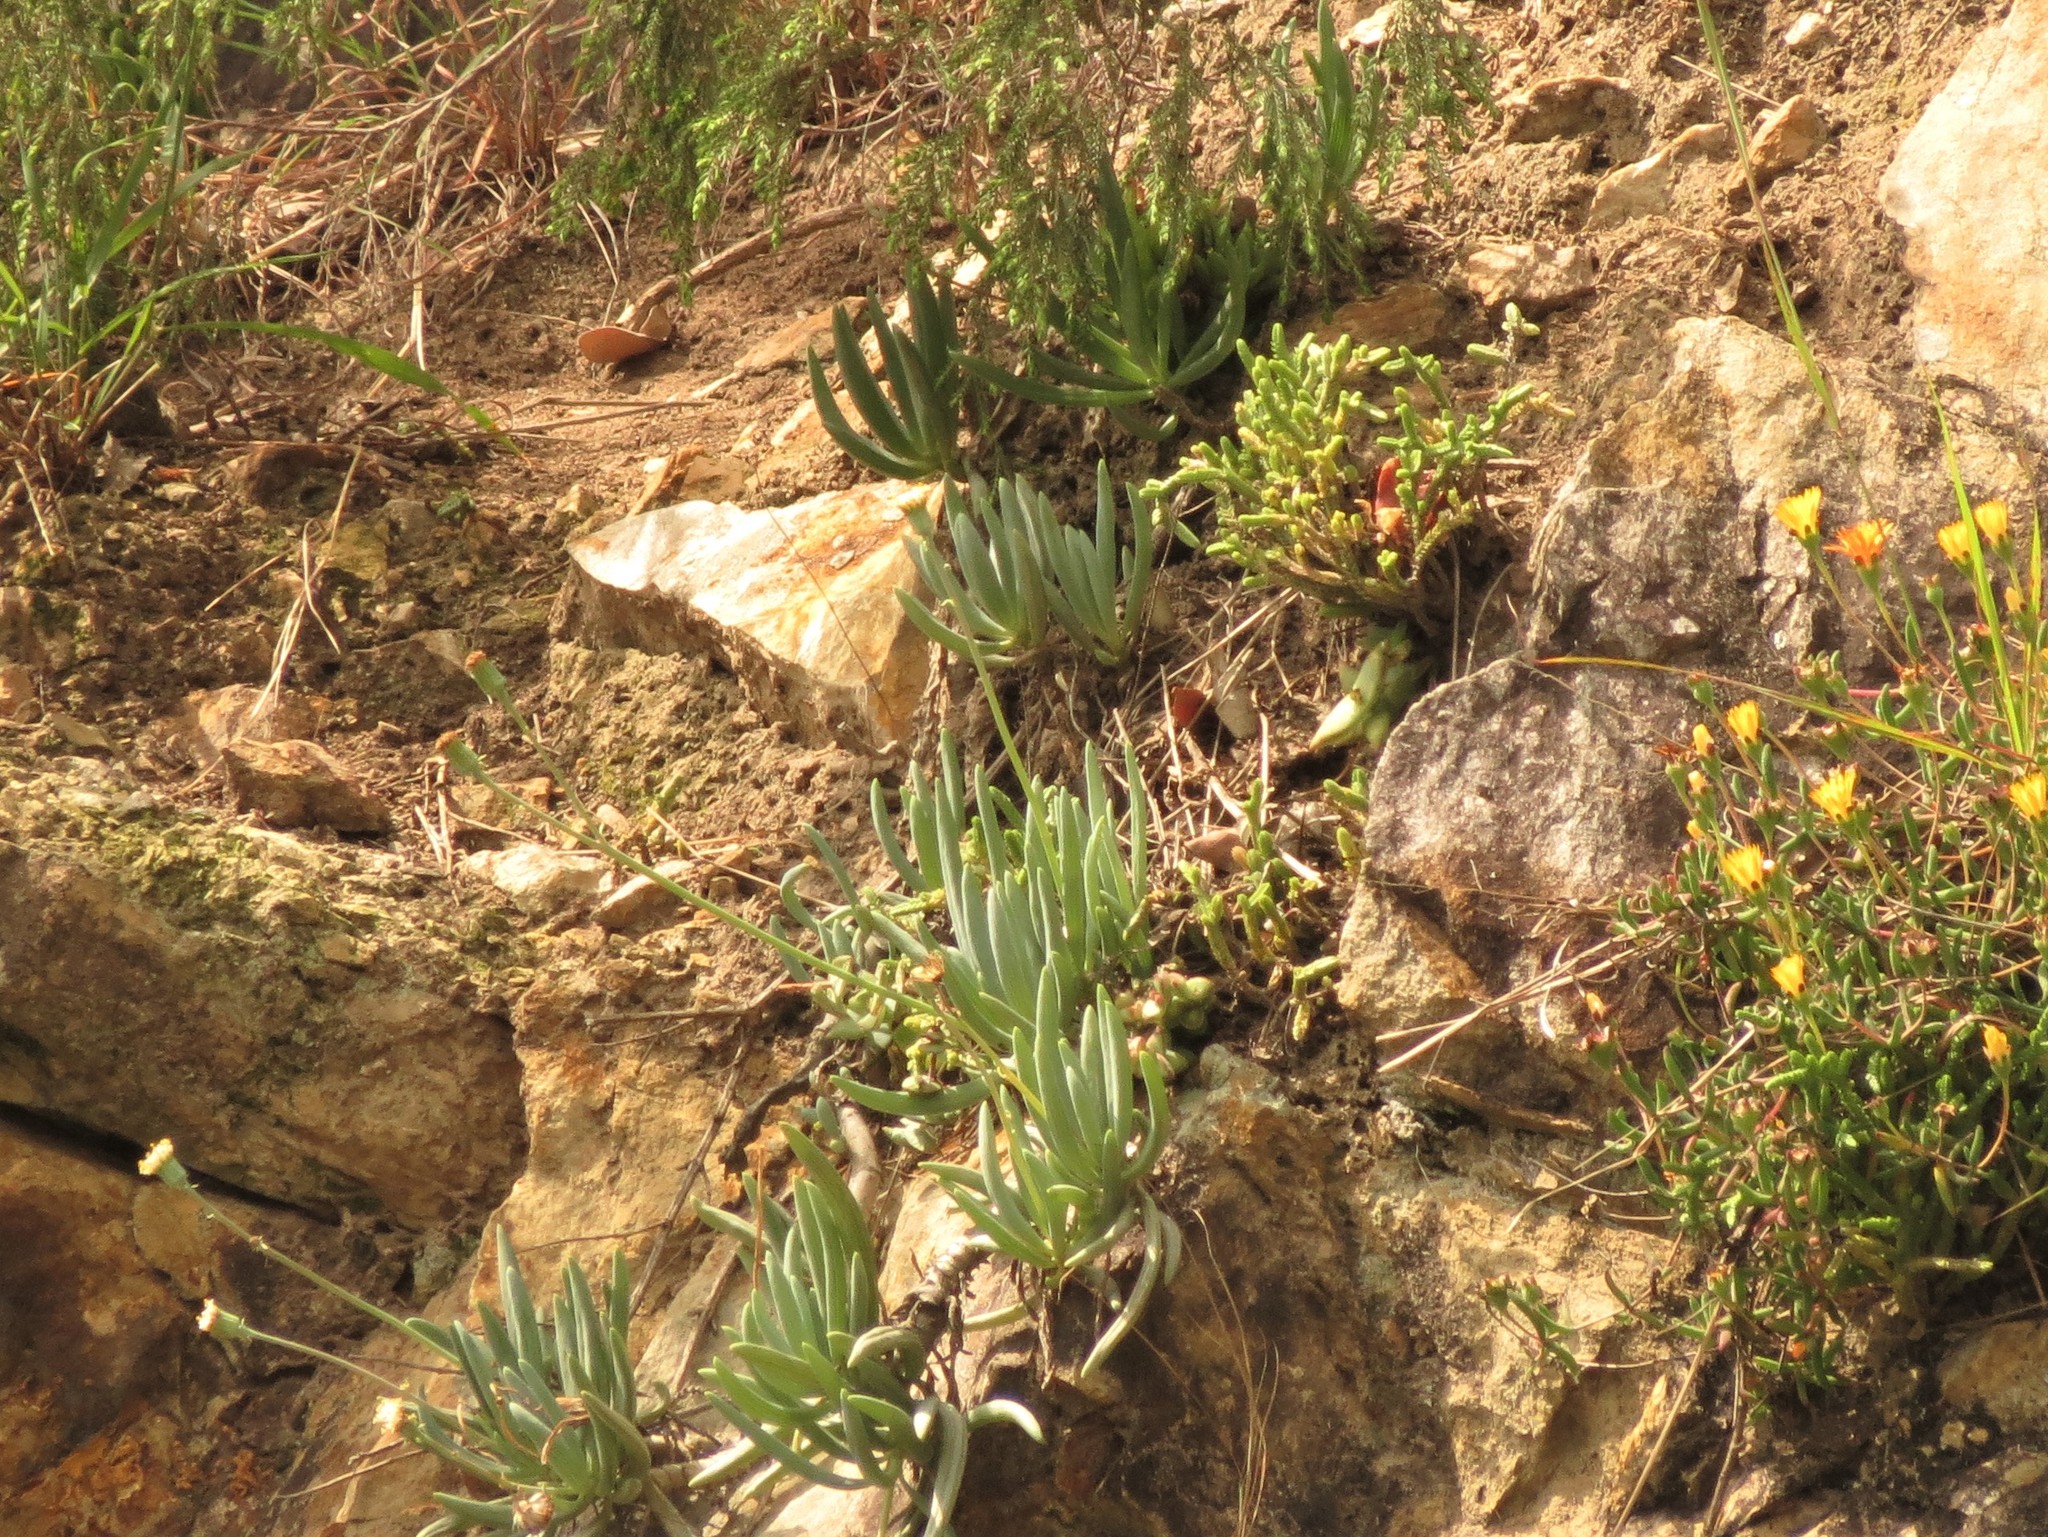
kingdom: Plantae
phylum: Tracheophyta
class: Magnoliopsida
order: Asterales
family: Asteraceae
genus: Curio
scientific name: Curio talinoides
